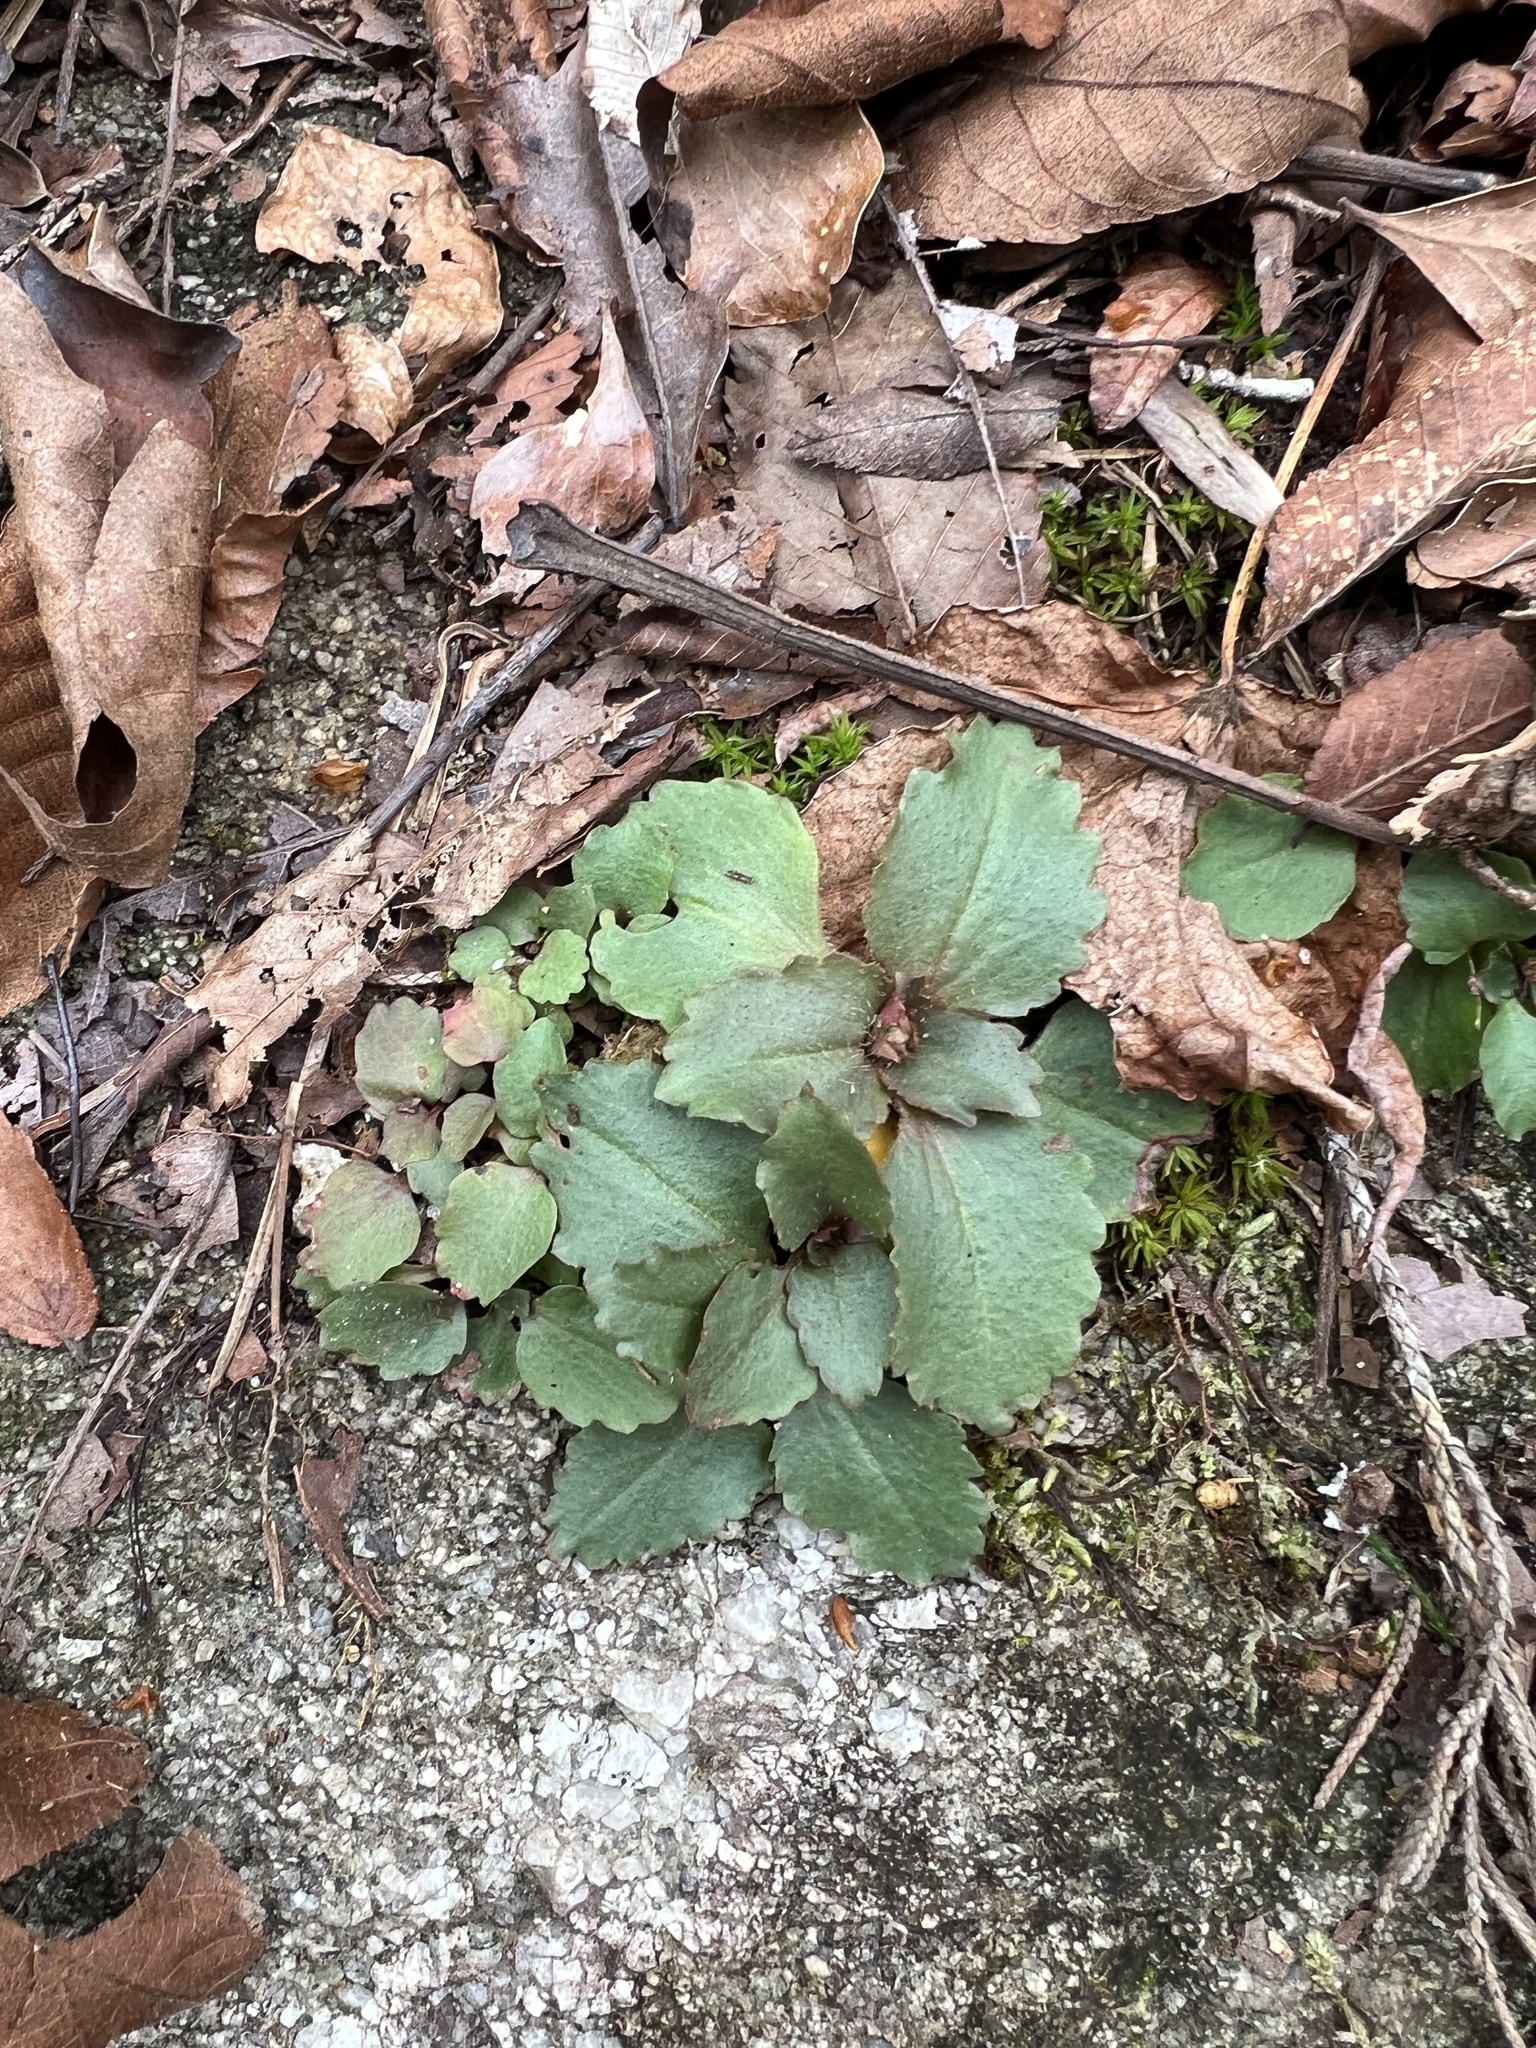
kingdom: Plantae
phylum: Tracheophyta
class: Magnoliopsida
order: Saxifragales
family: Saxifragaceae
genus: Micranthes
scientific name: Micranthes virginiensis
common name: Early saxifrage
